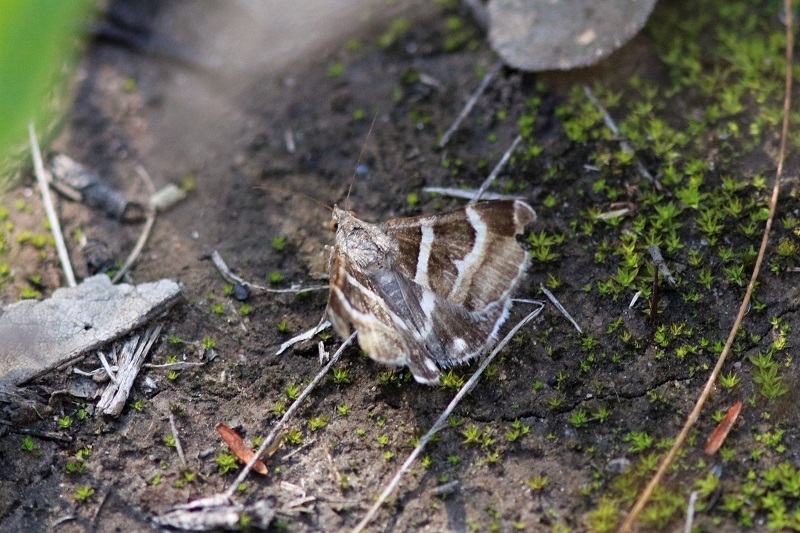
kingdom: Animalia
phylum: Arthropoda
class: Insecta
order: Lepidoptera
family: Erebidae
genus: Grammodes
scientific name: Grammodes stolida
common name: Geometrician
